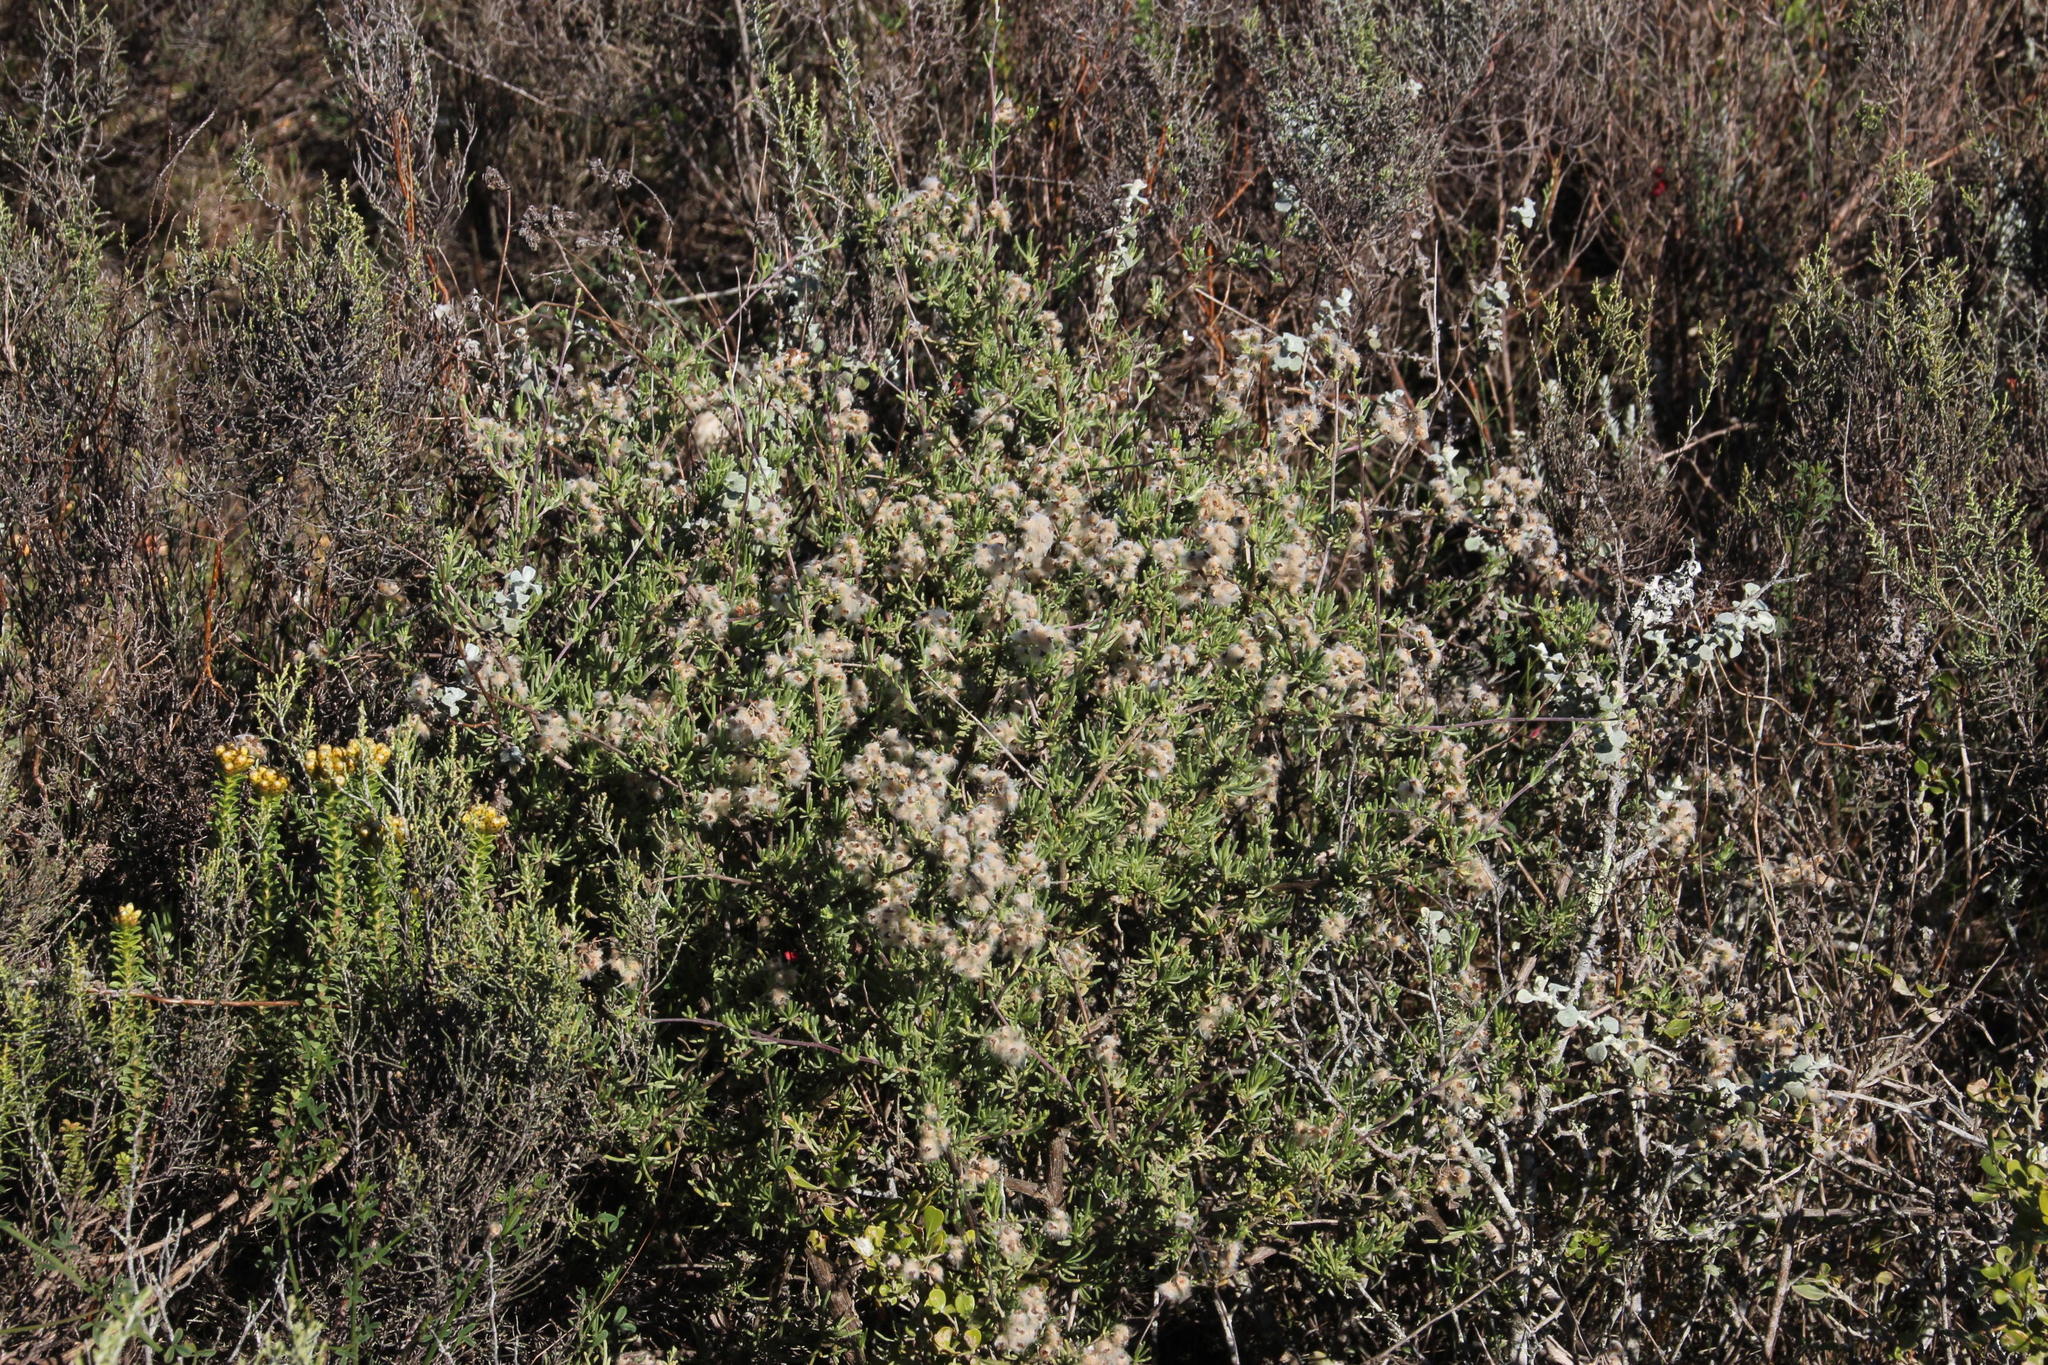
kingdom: Plantae
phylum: Tracheophyta
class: Magnoliopsida
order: Asterales
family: Asteraceae
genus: Eriocephalus
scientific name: Eriocephalus africanus
